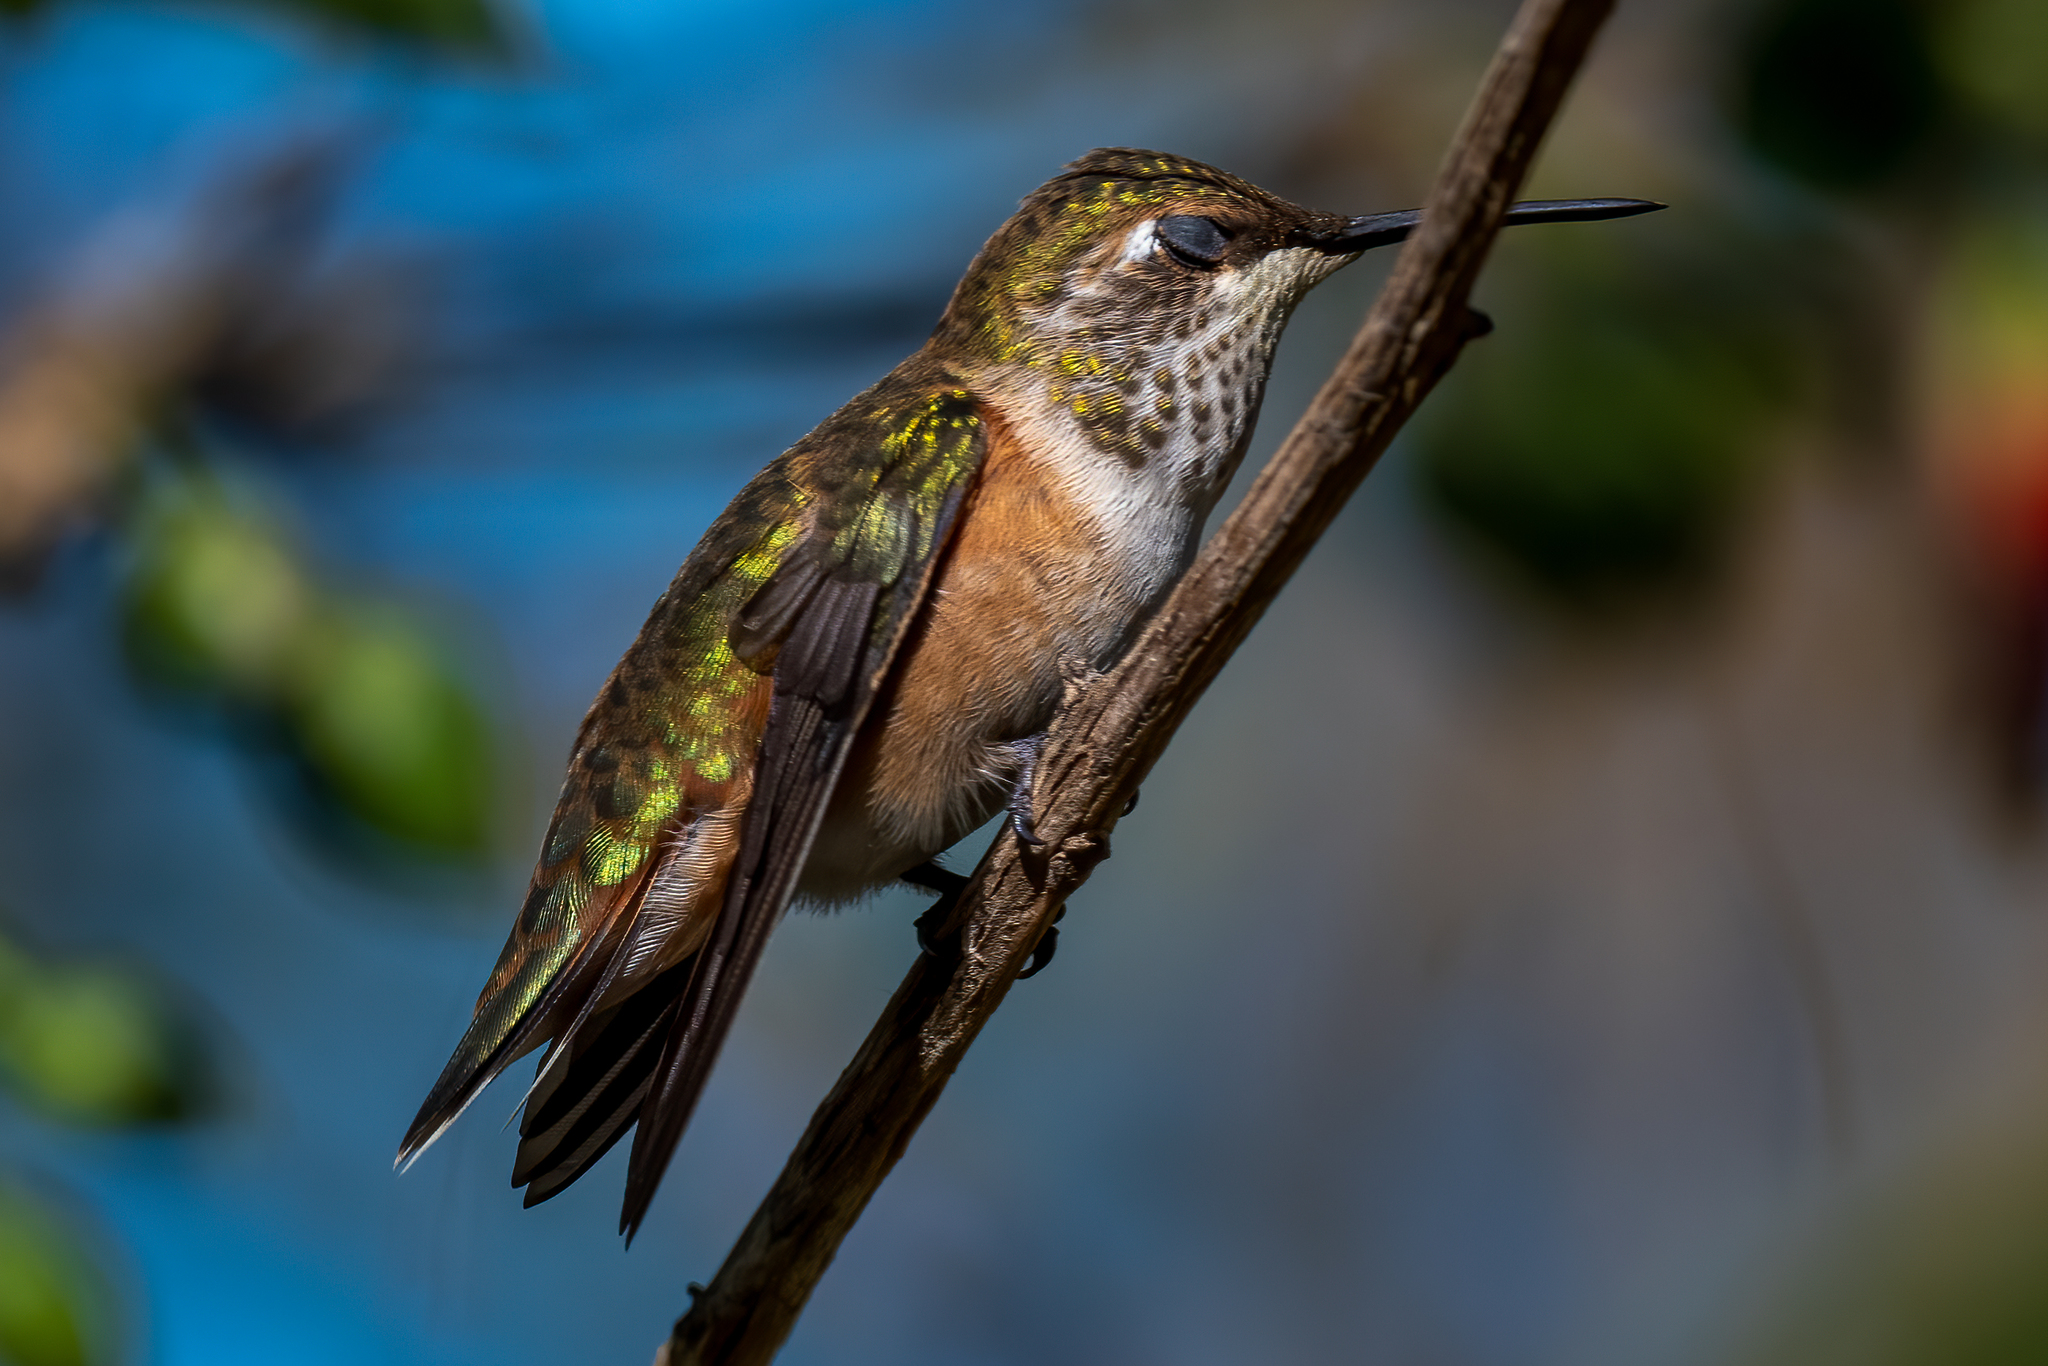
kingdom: Animalia
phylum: Chordata
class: Aves
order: Apodiformes
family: Trochilidae
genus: Selasphorus
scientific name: Selasphorus
